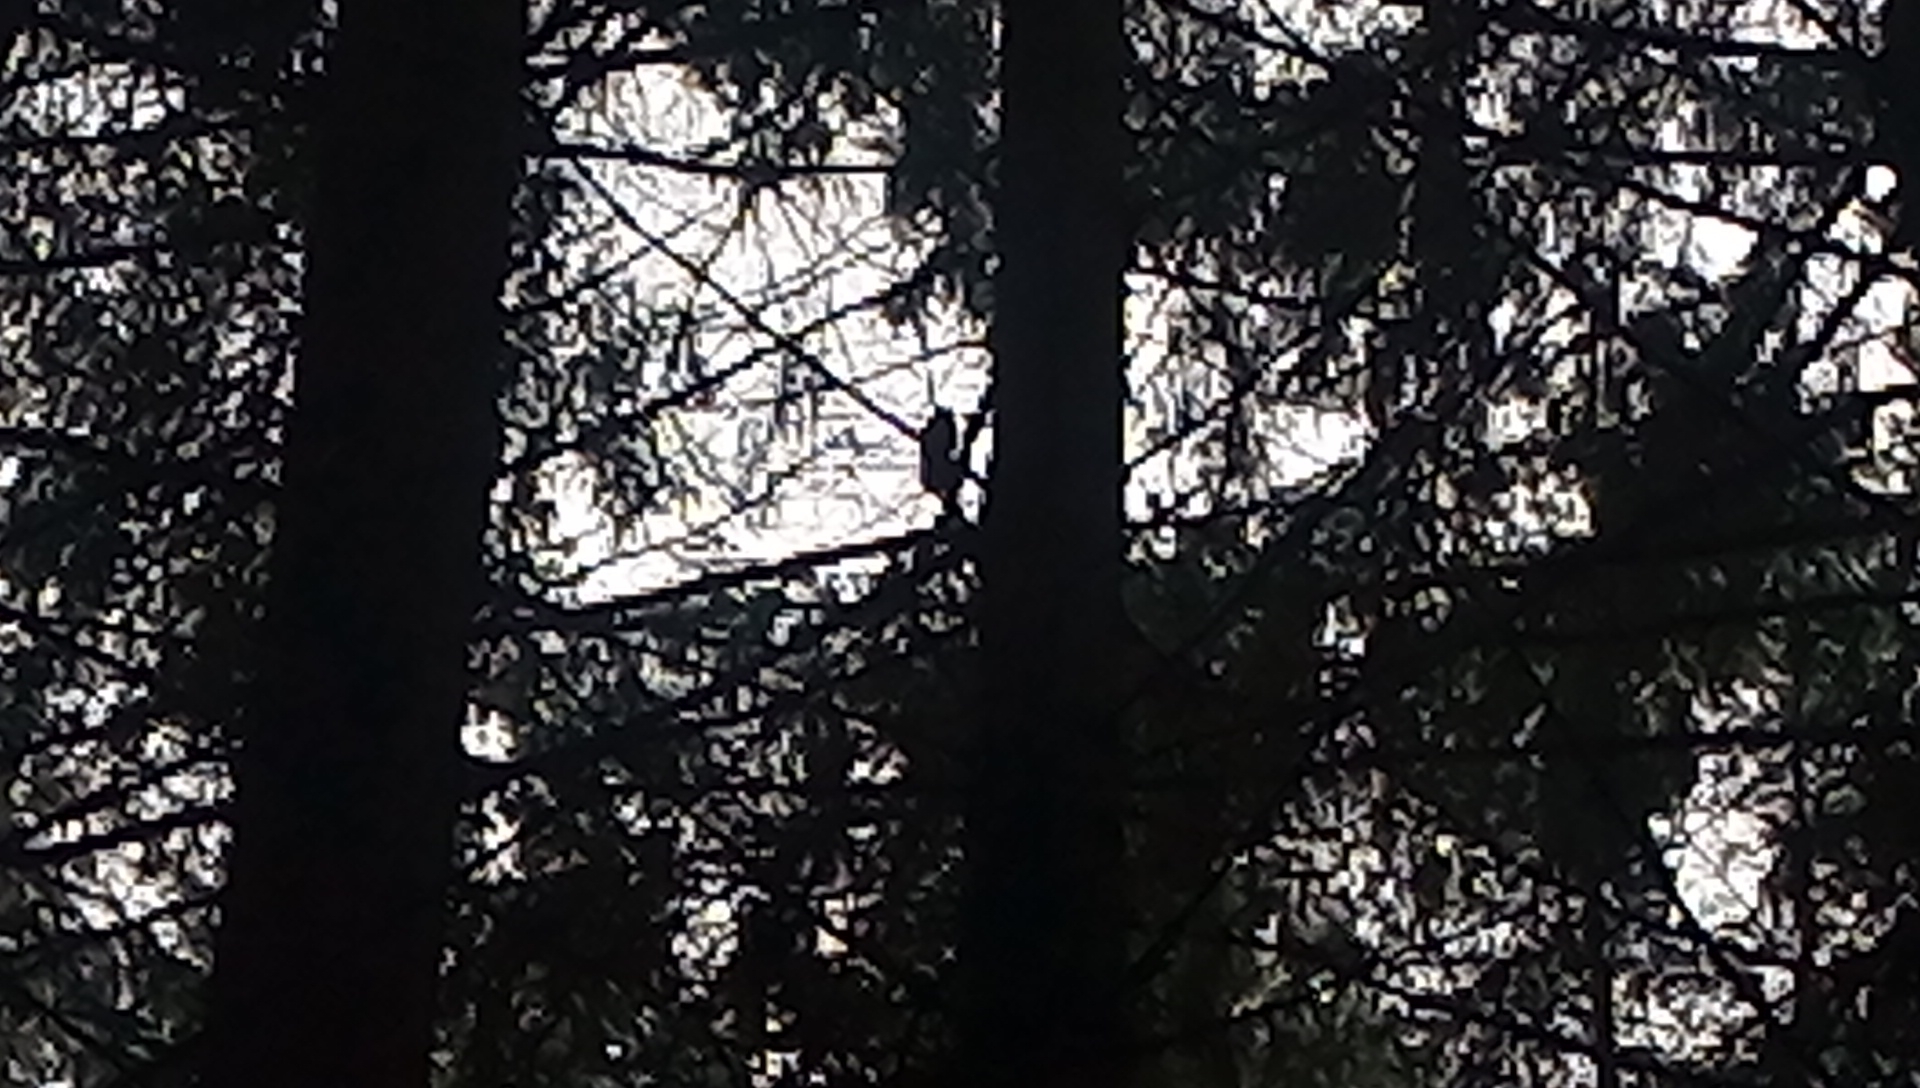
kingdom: Animalia
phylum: Chordata
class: Mammalia
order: Rodentia
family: Sciuridae
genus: Sciurus
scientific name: Sciurus vulgaris
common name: Eurasian red squirrel
